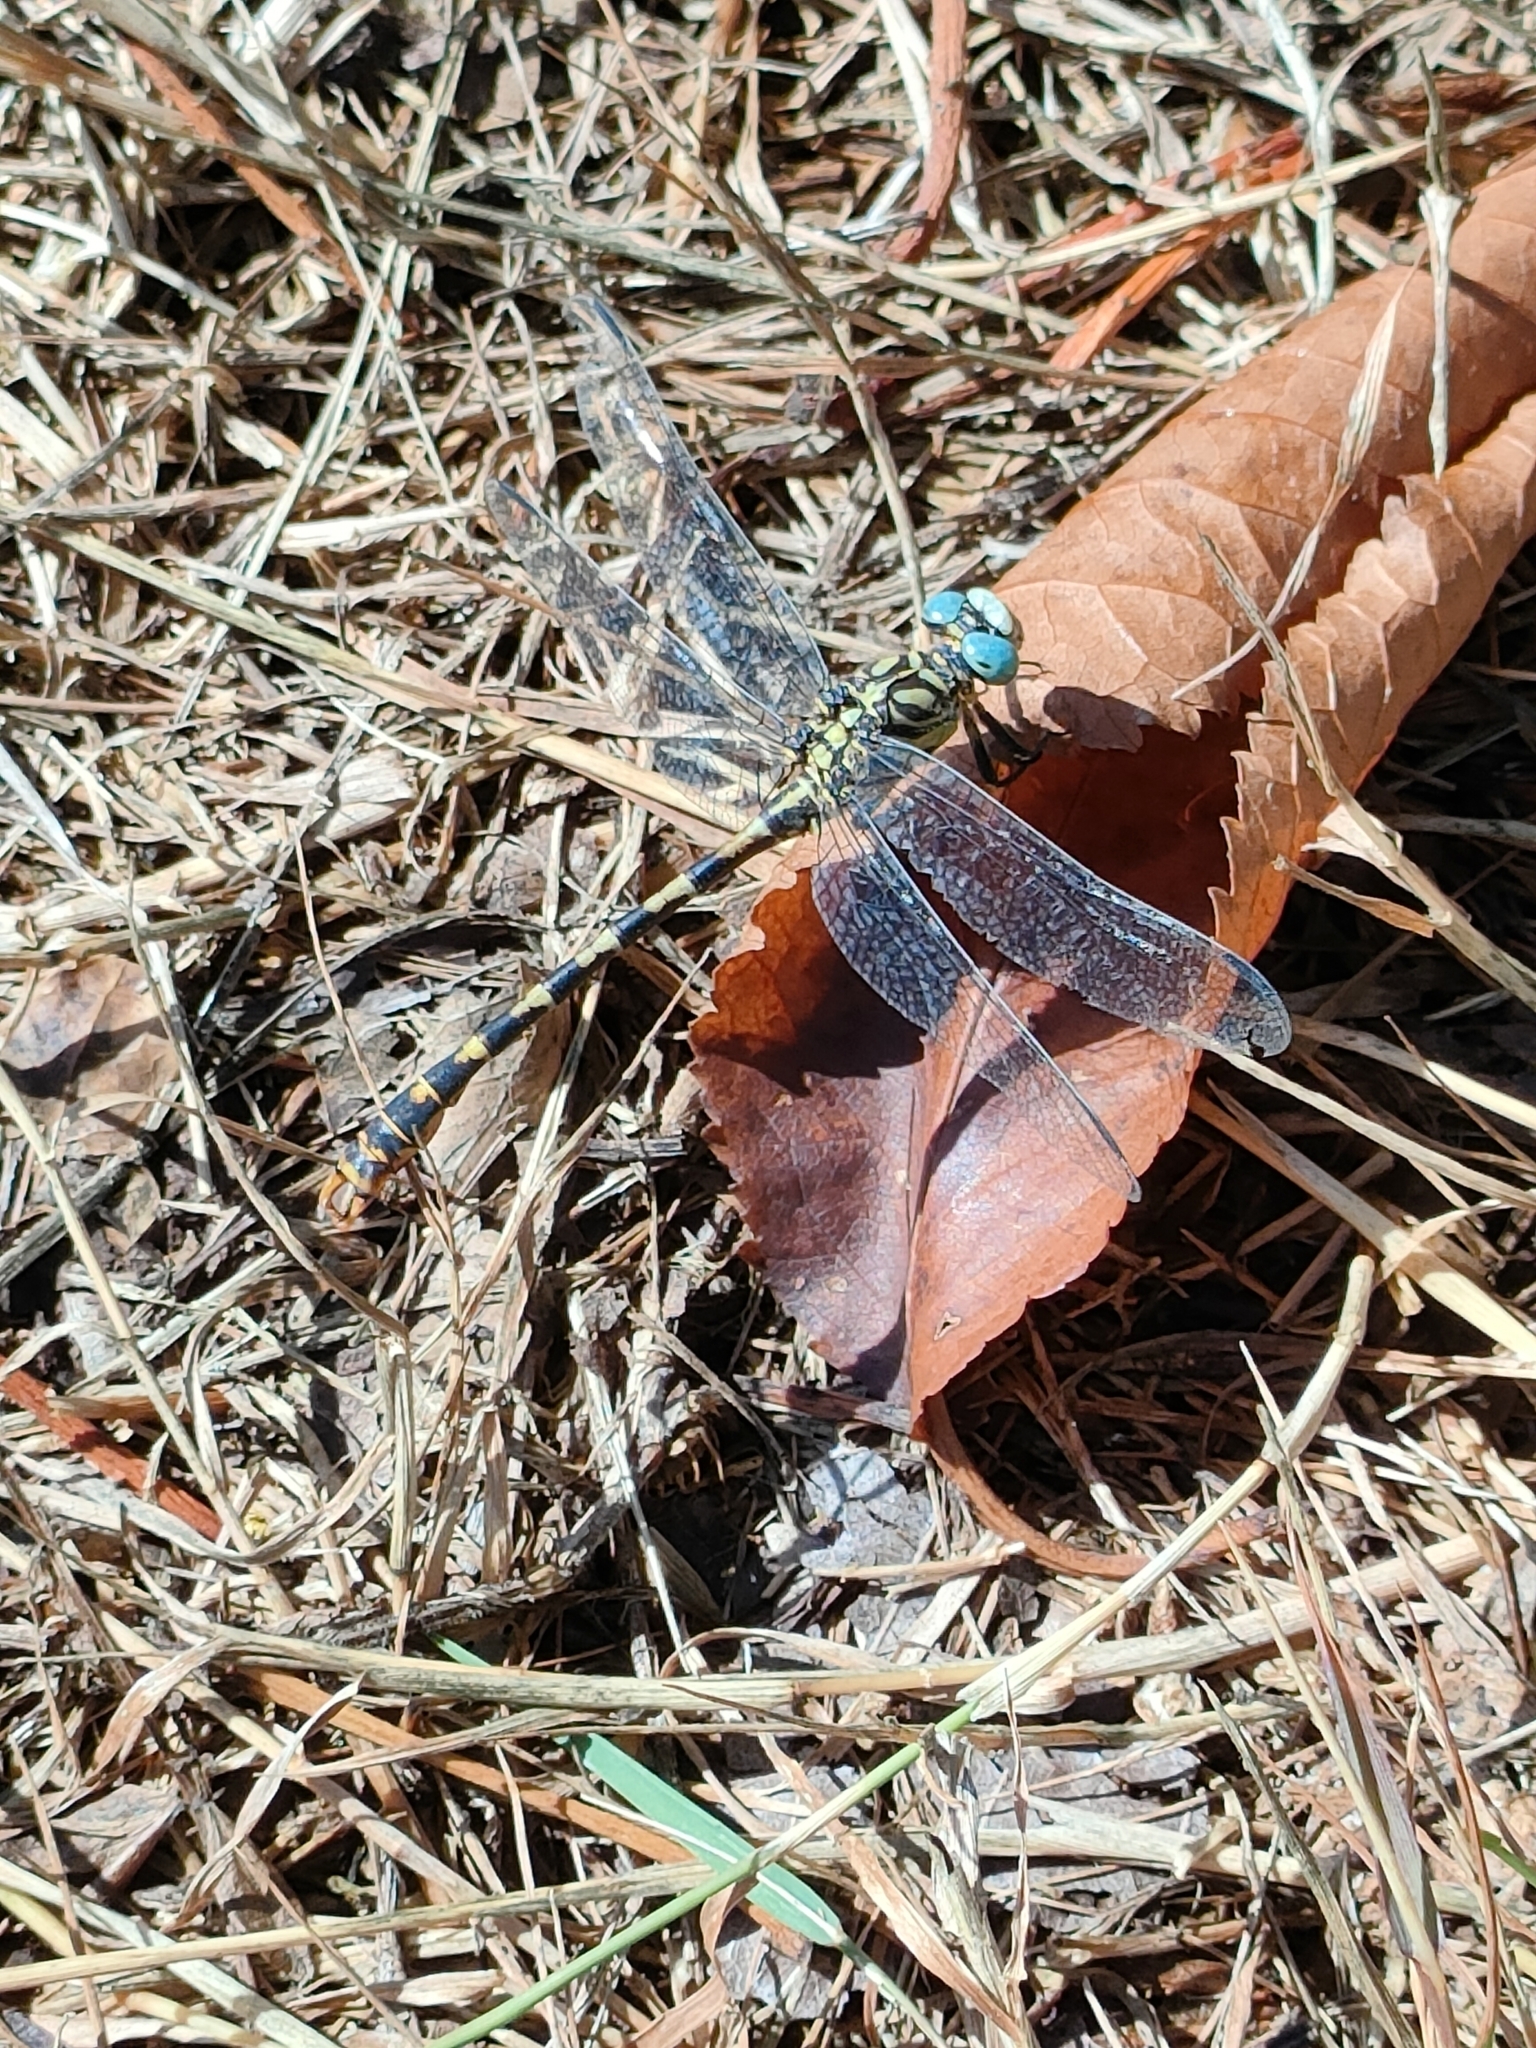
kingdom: Animalia
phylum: Arthropoda
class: Insecta
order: Odonata
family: Gomphidae
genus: Onychogomphus
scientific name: Onychogomphus forcipatus
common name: Small pincertail
